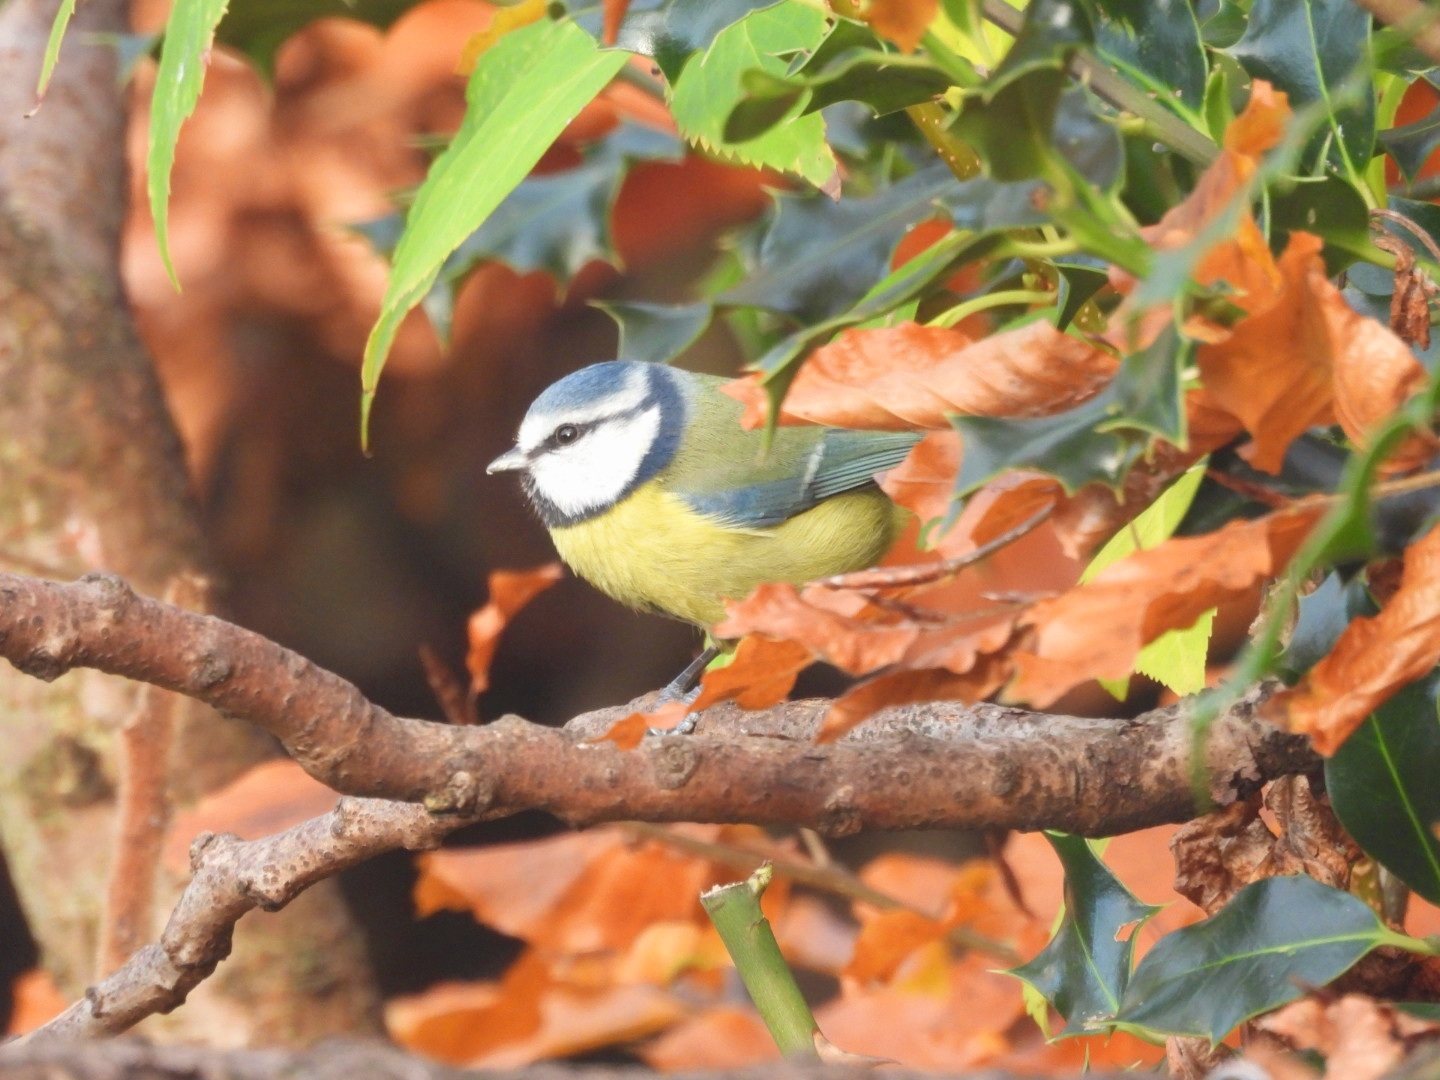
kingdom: Animalia
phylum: Chordata
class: Aves
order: Passeriformes
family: Paridae
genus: Cyanistes
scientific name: Cyanistes caeruleus
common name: Eurasian blue tit
